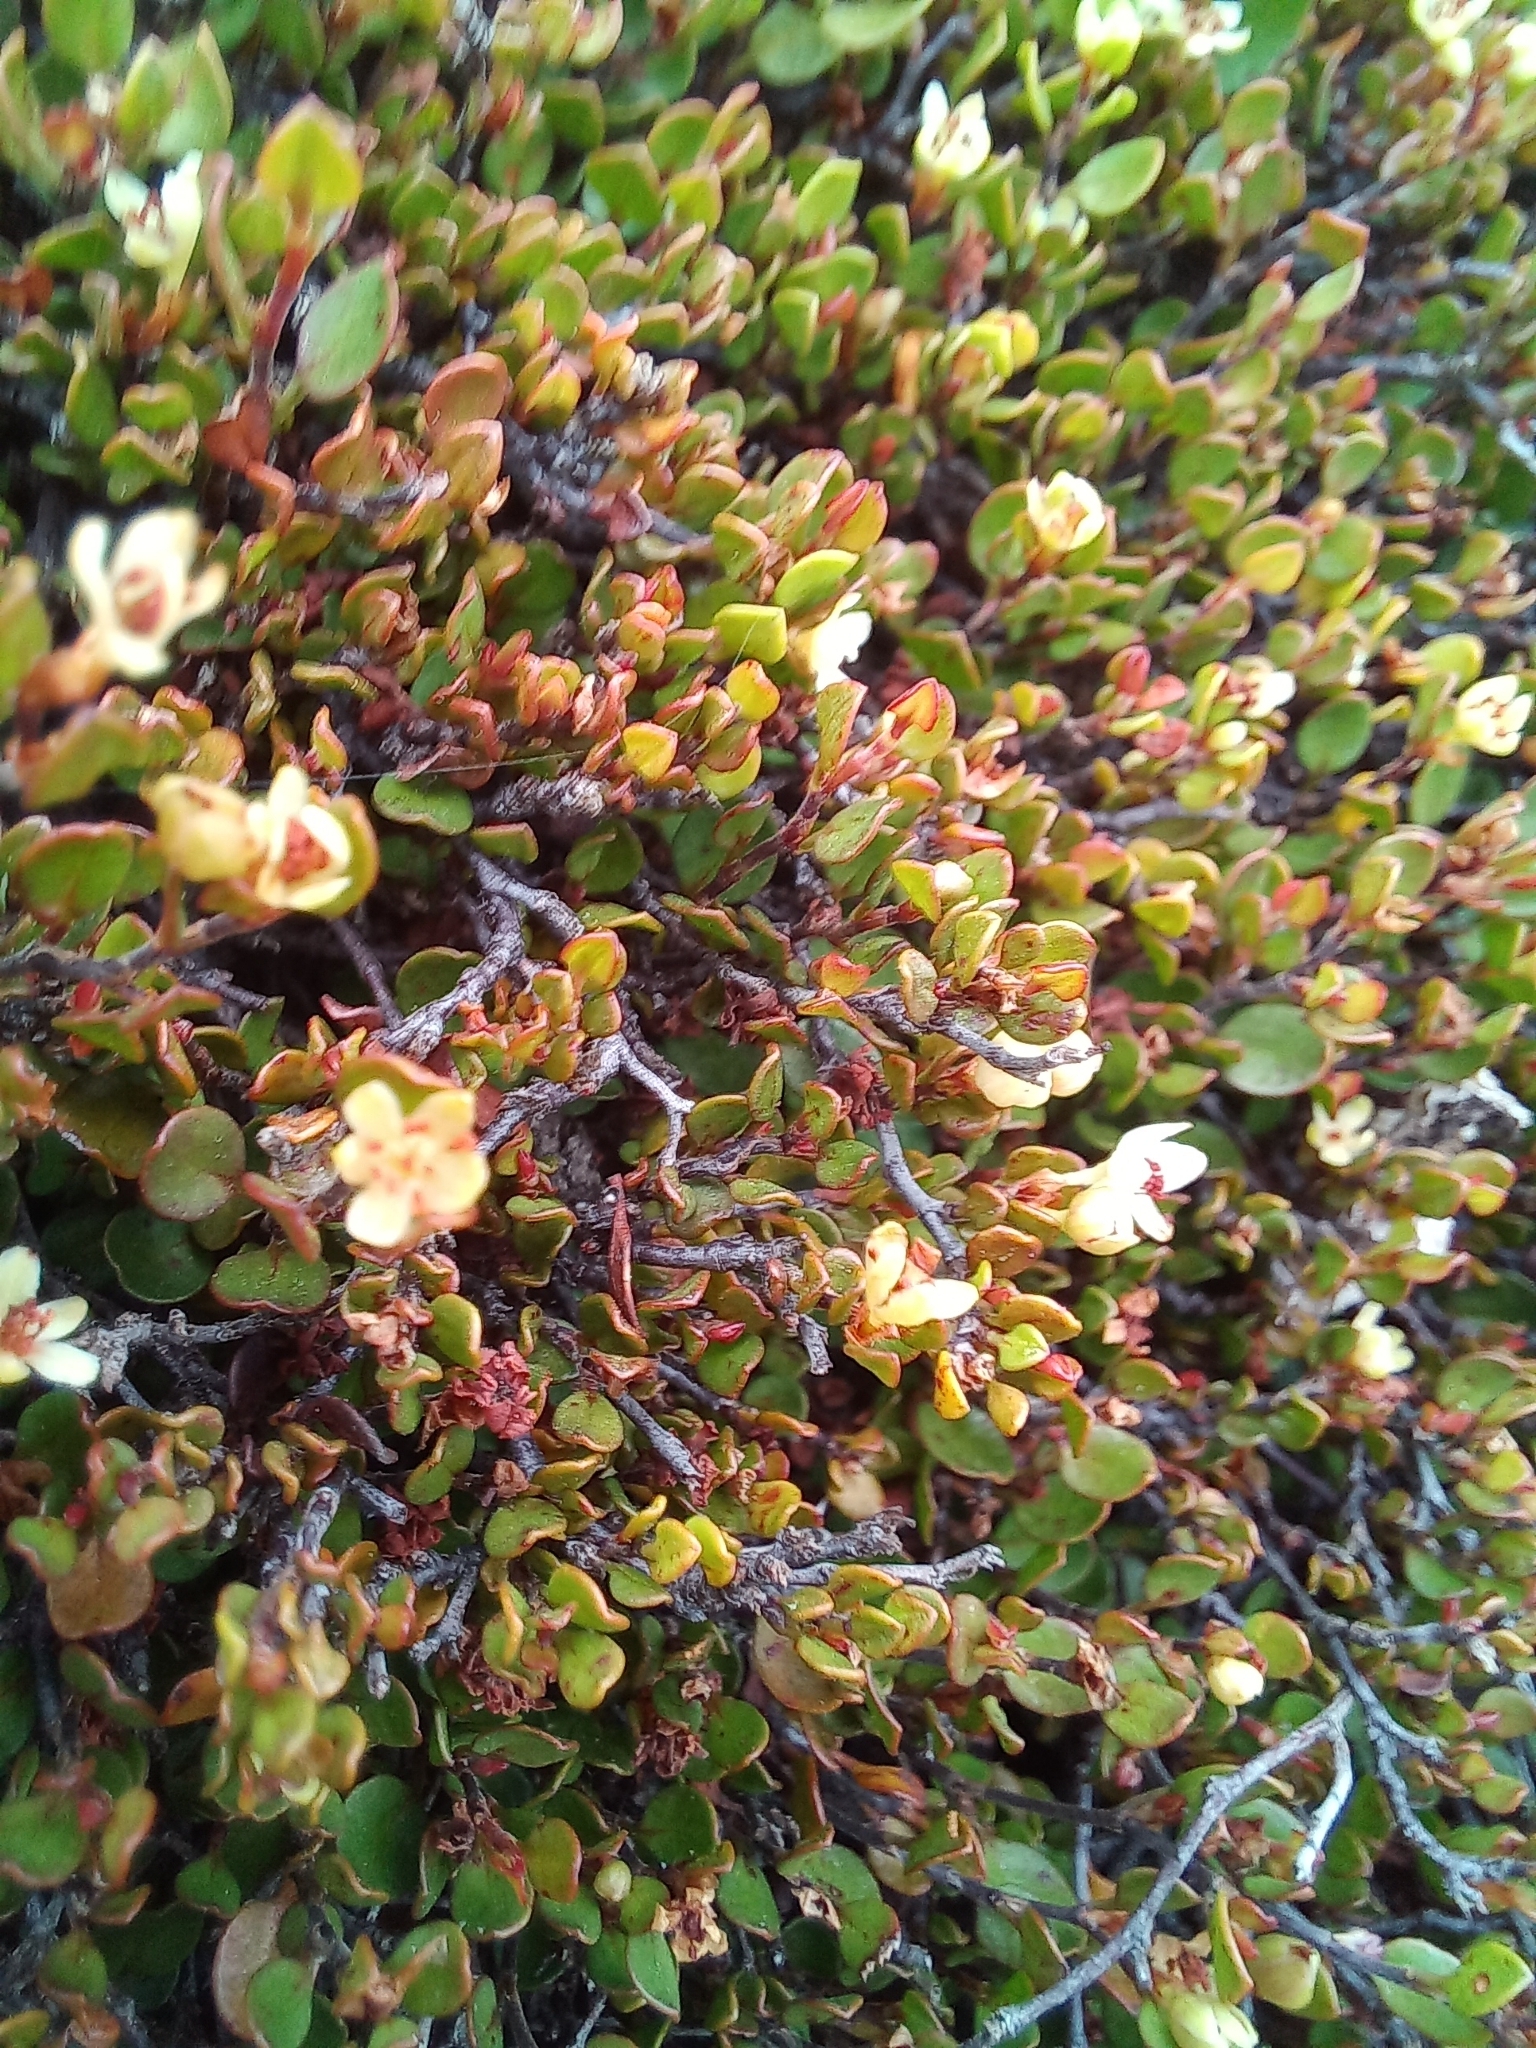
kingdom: Plantae
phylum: Tracheophyta
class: Magnoliopsida
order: Caryophyllales
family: Polygonaceae
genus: Muehlenbeckia
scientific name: Muehlenbeckia axillaris
